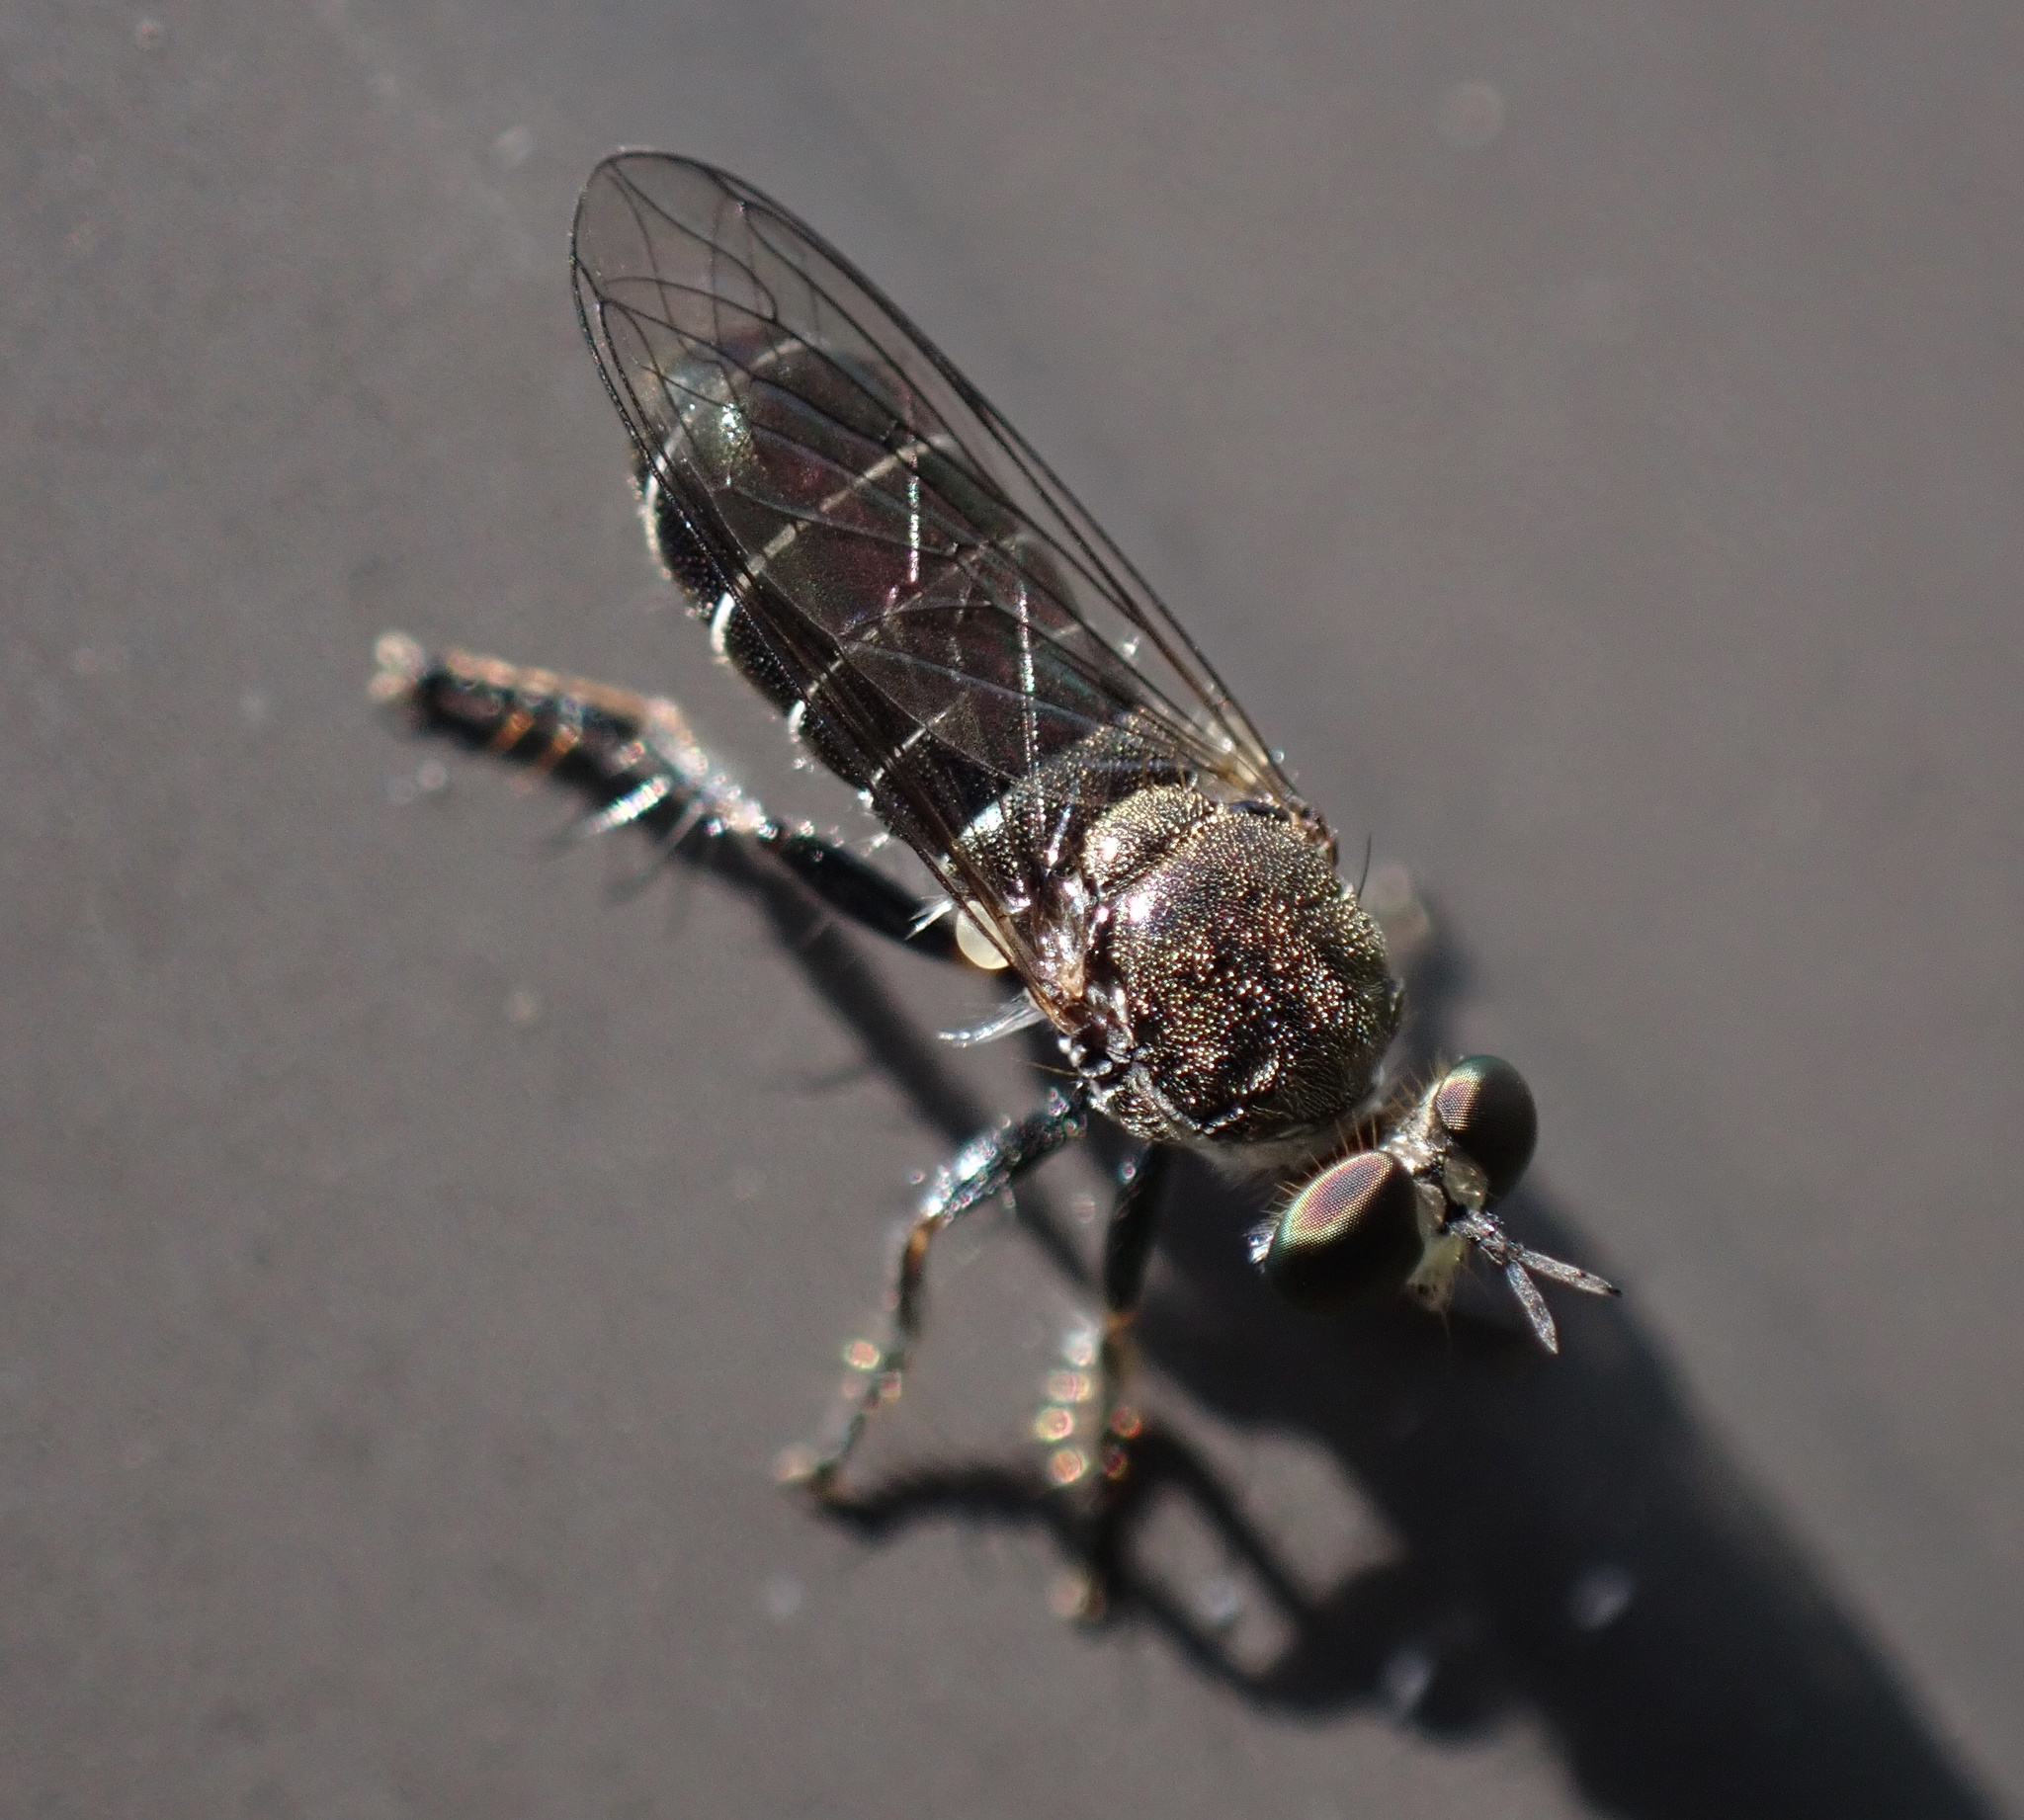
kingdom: Animalia
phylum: Arthropoda
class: Insecta
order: Diptera
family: Asilidae
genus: Atomosia
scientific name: Atomosia puella
